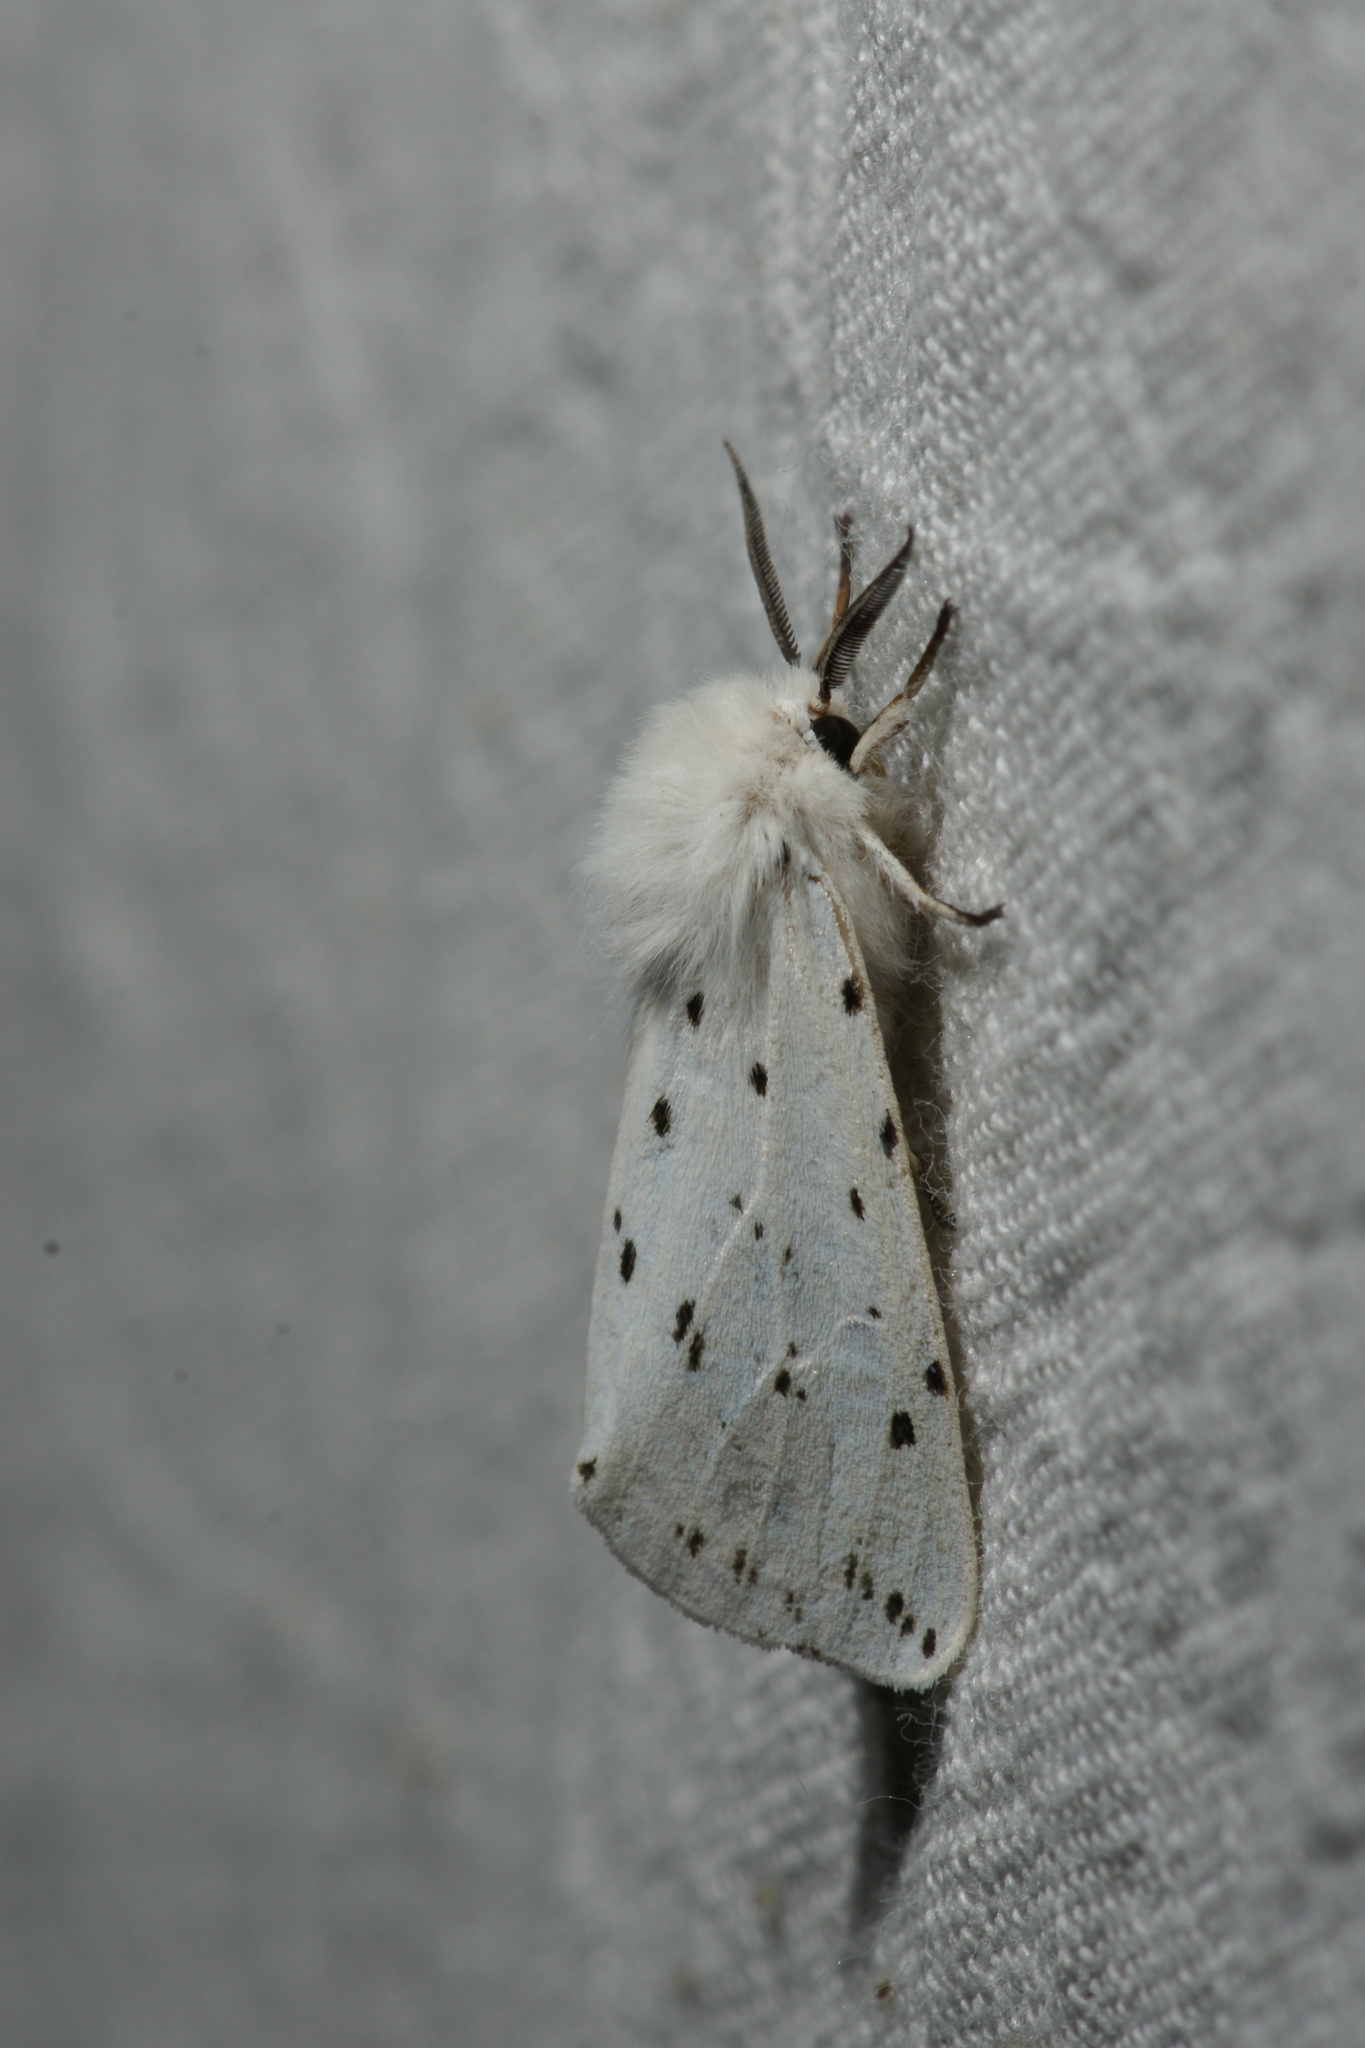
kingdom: Animalia
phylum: Arthropoda
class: Insecta
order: Lepidoptera
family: Erebidae
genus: Spilosoma
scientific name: Spilosoma lubricipeda
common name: White ermine
